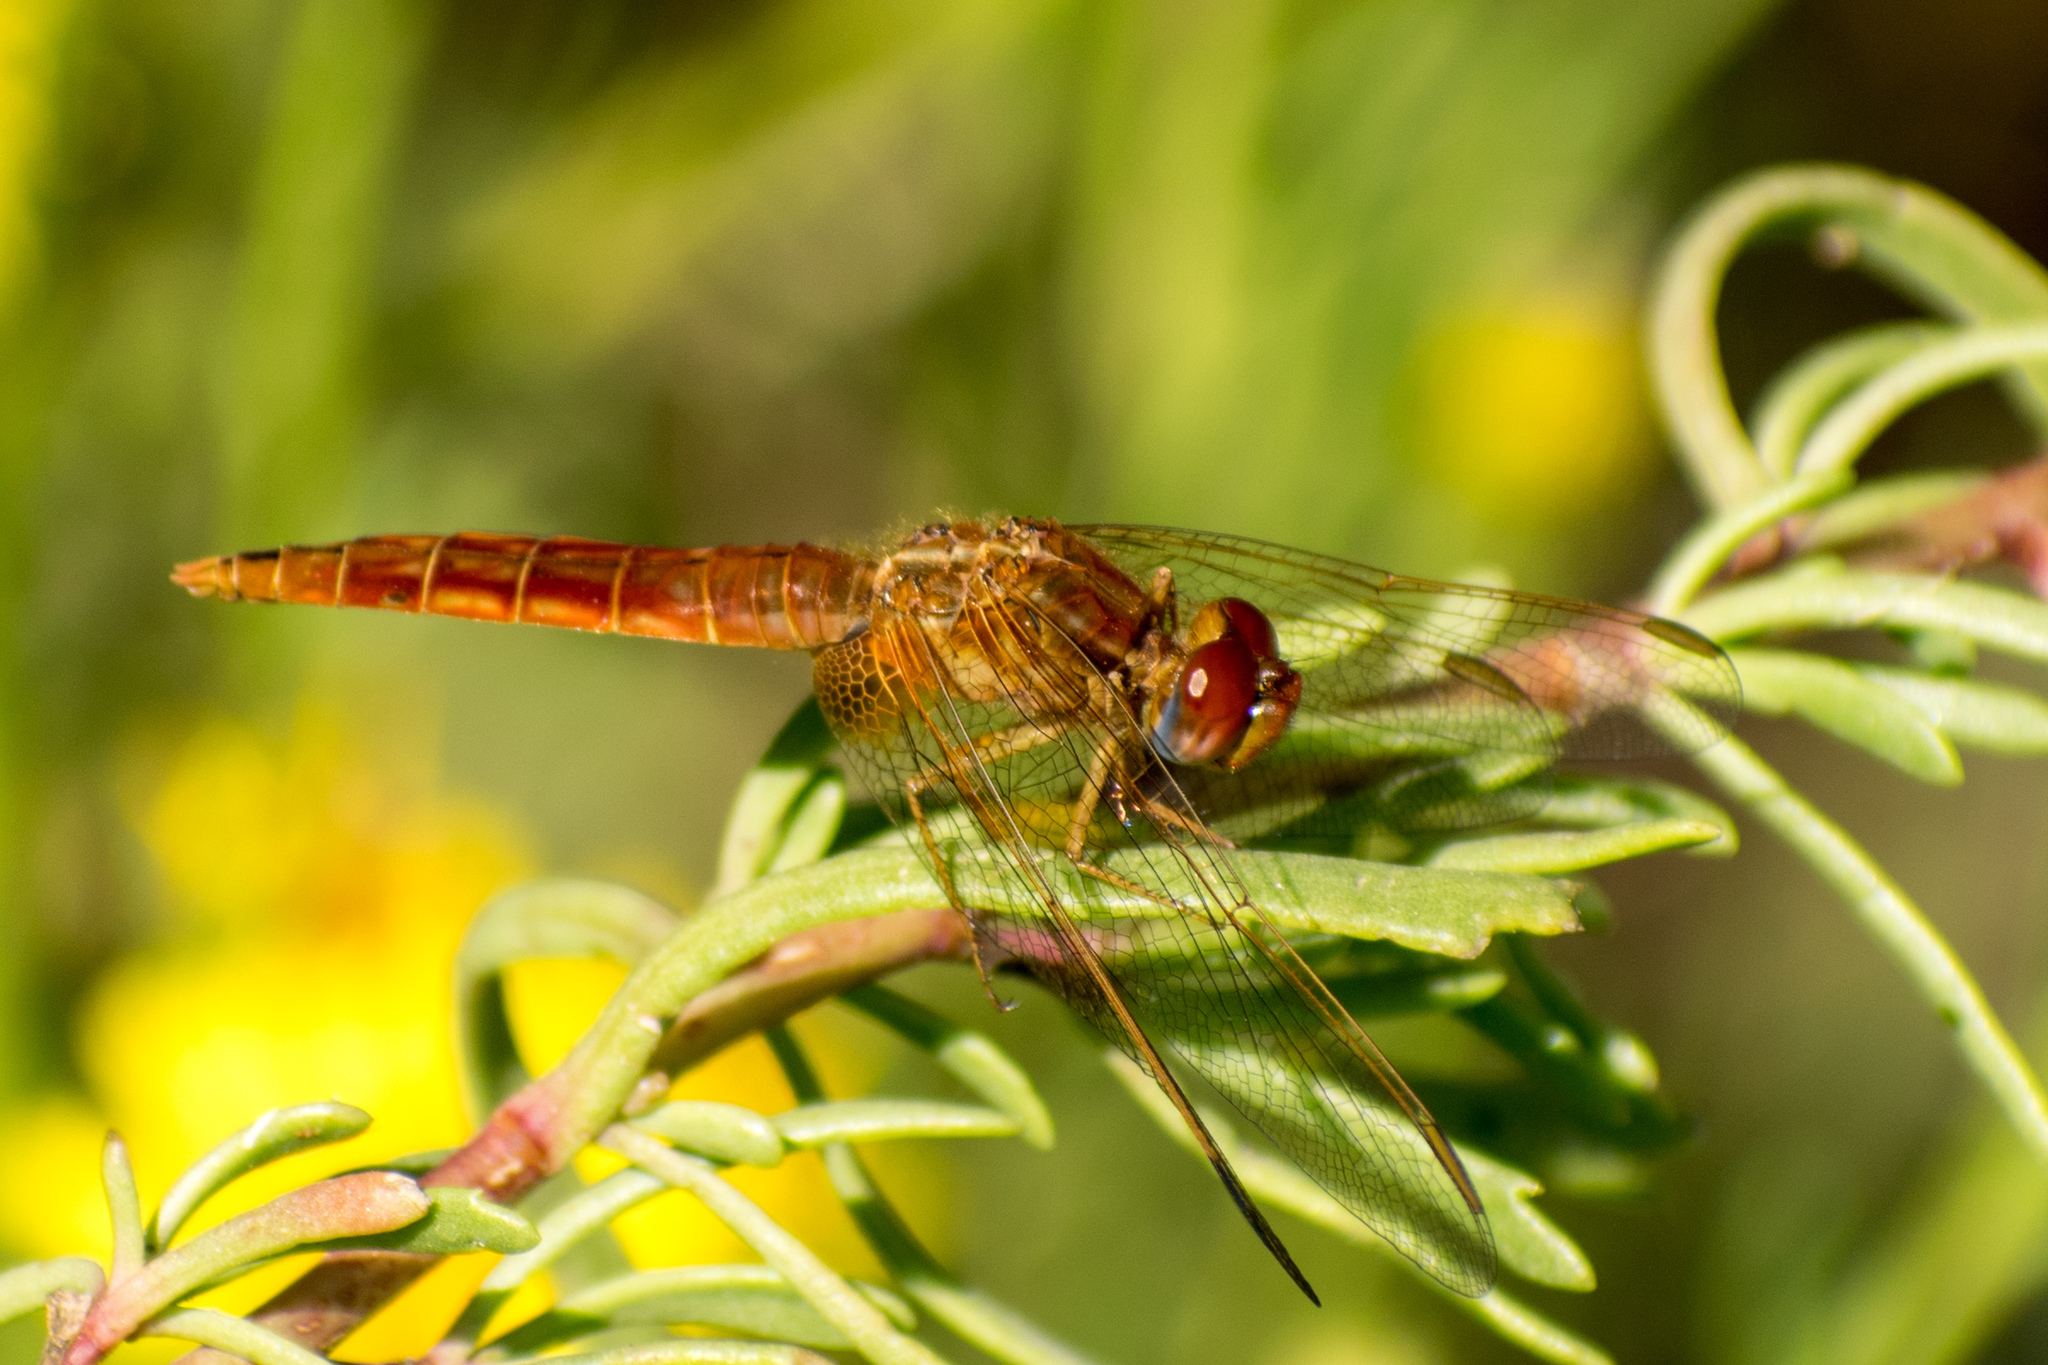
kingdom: Animalia
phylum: Arthropoda
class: Insecta
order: Odonata
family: Libellulidae
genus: Crocothemis
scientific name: Crocothemis erythraea
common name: Scarlet dragonfly
